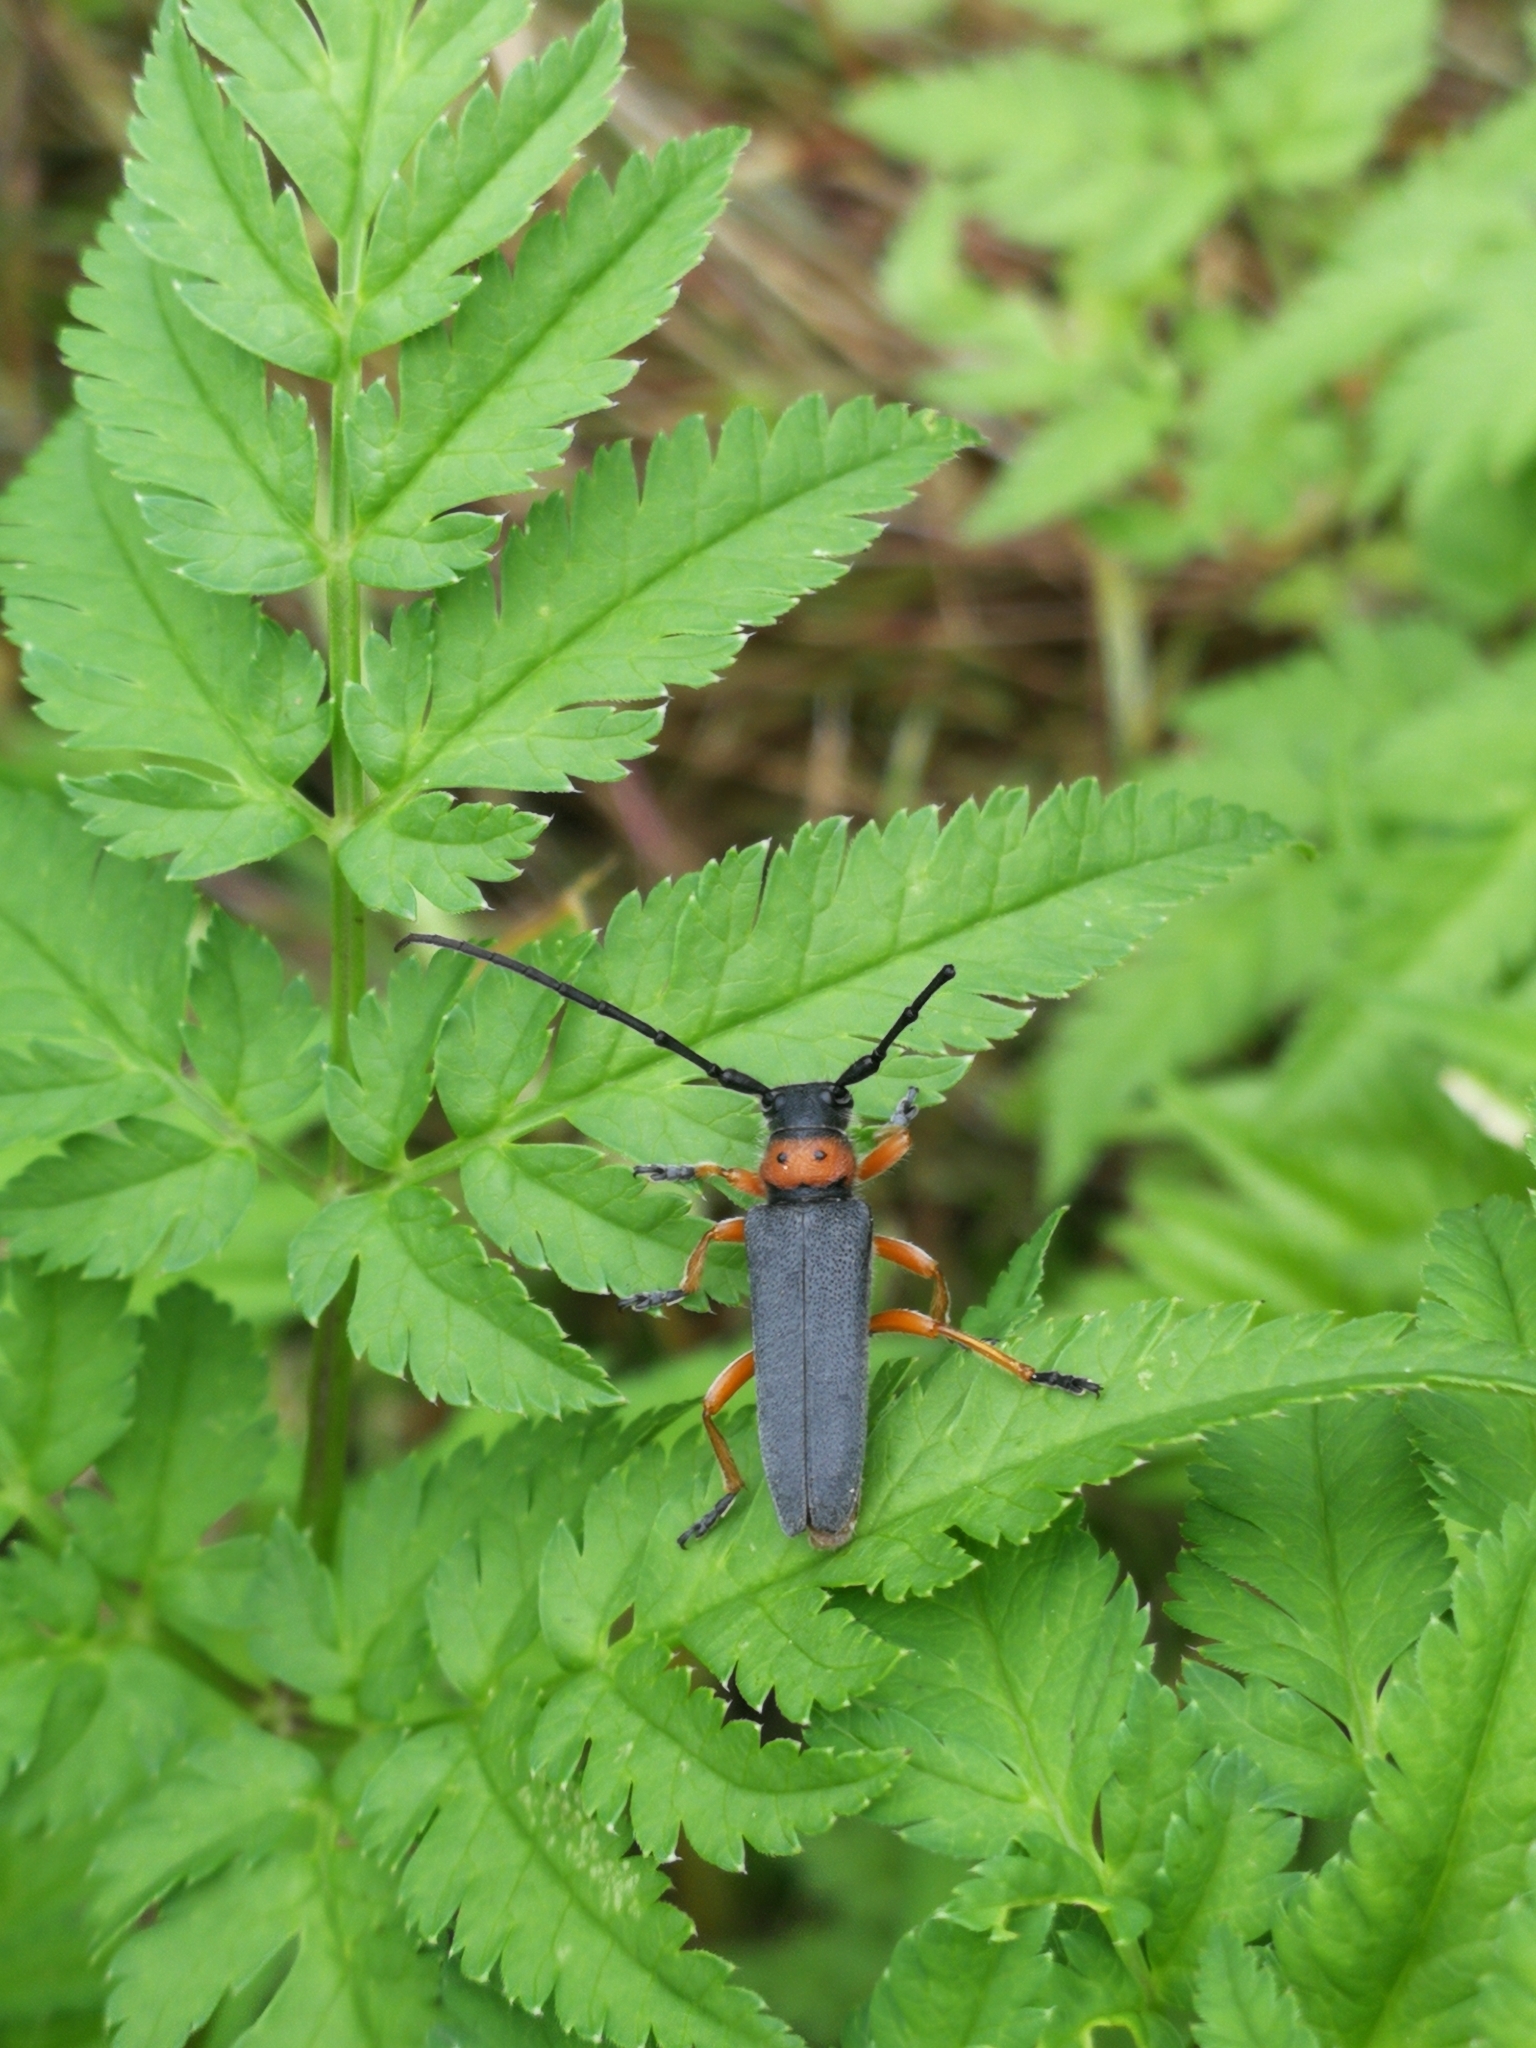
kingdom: Animalia
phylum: Arthropoda
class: Insecta
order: Coleoptera
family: Cerambycidae
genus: Phytoecia
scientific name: Phytoecia affinis
